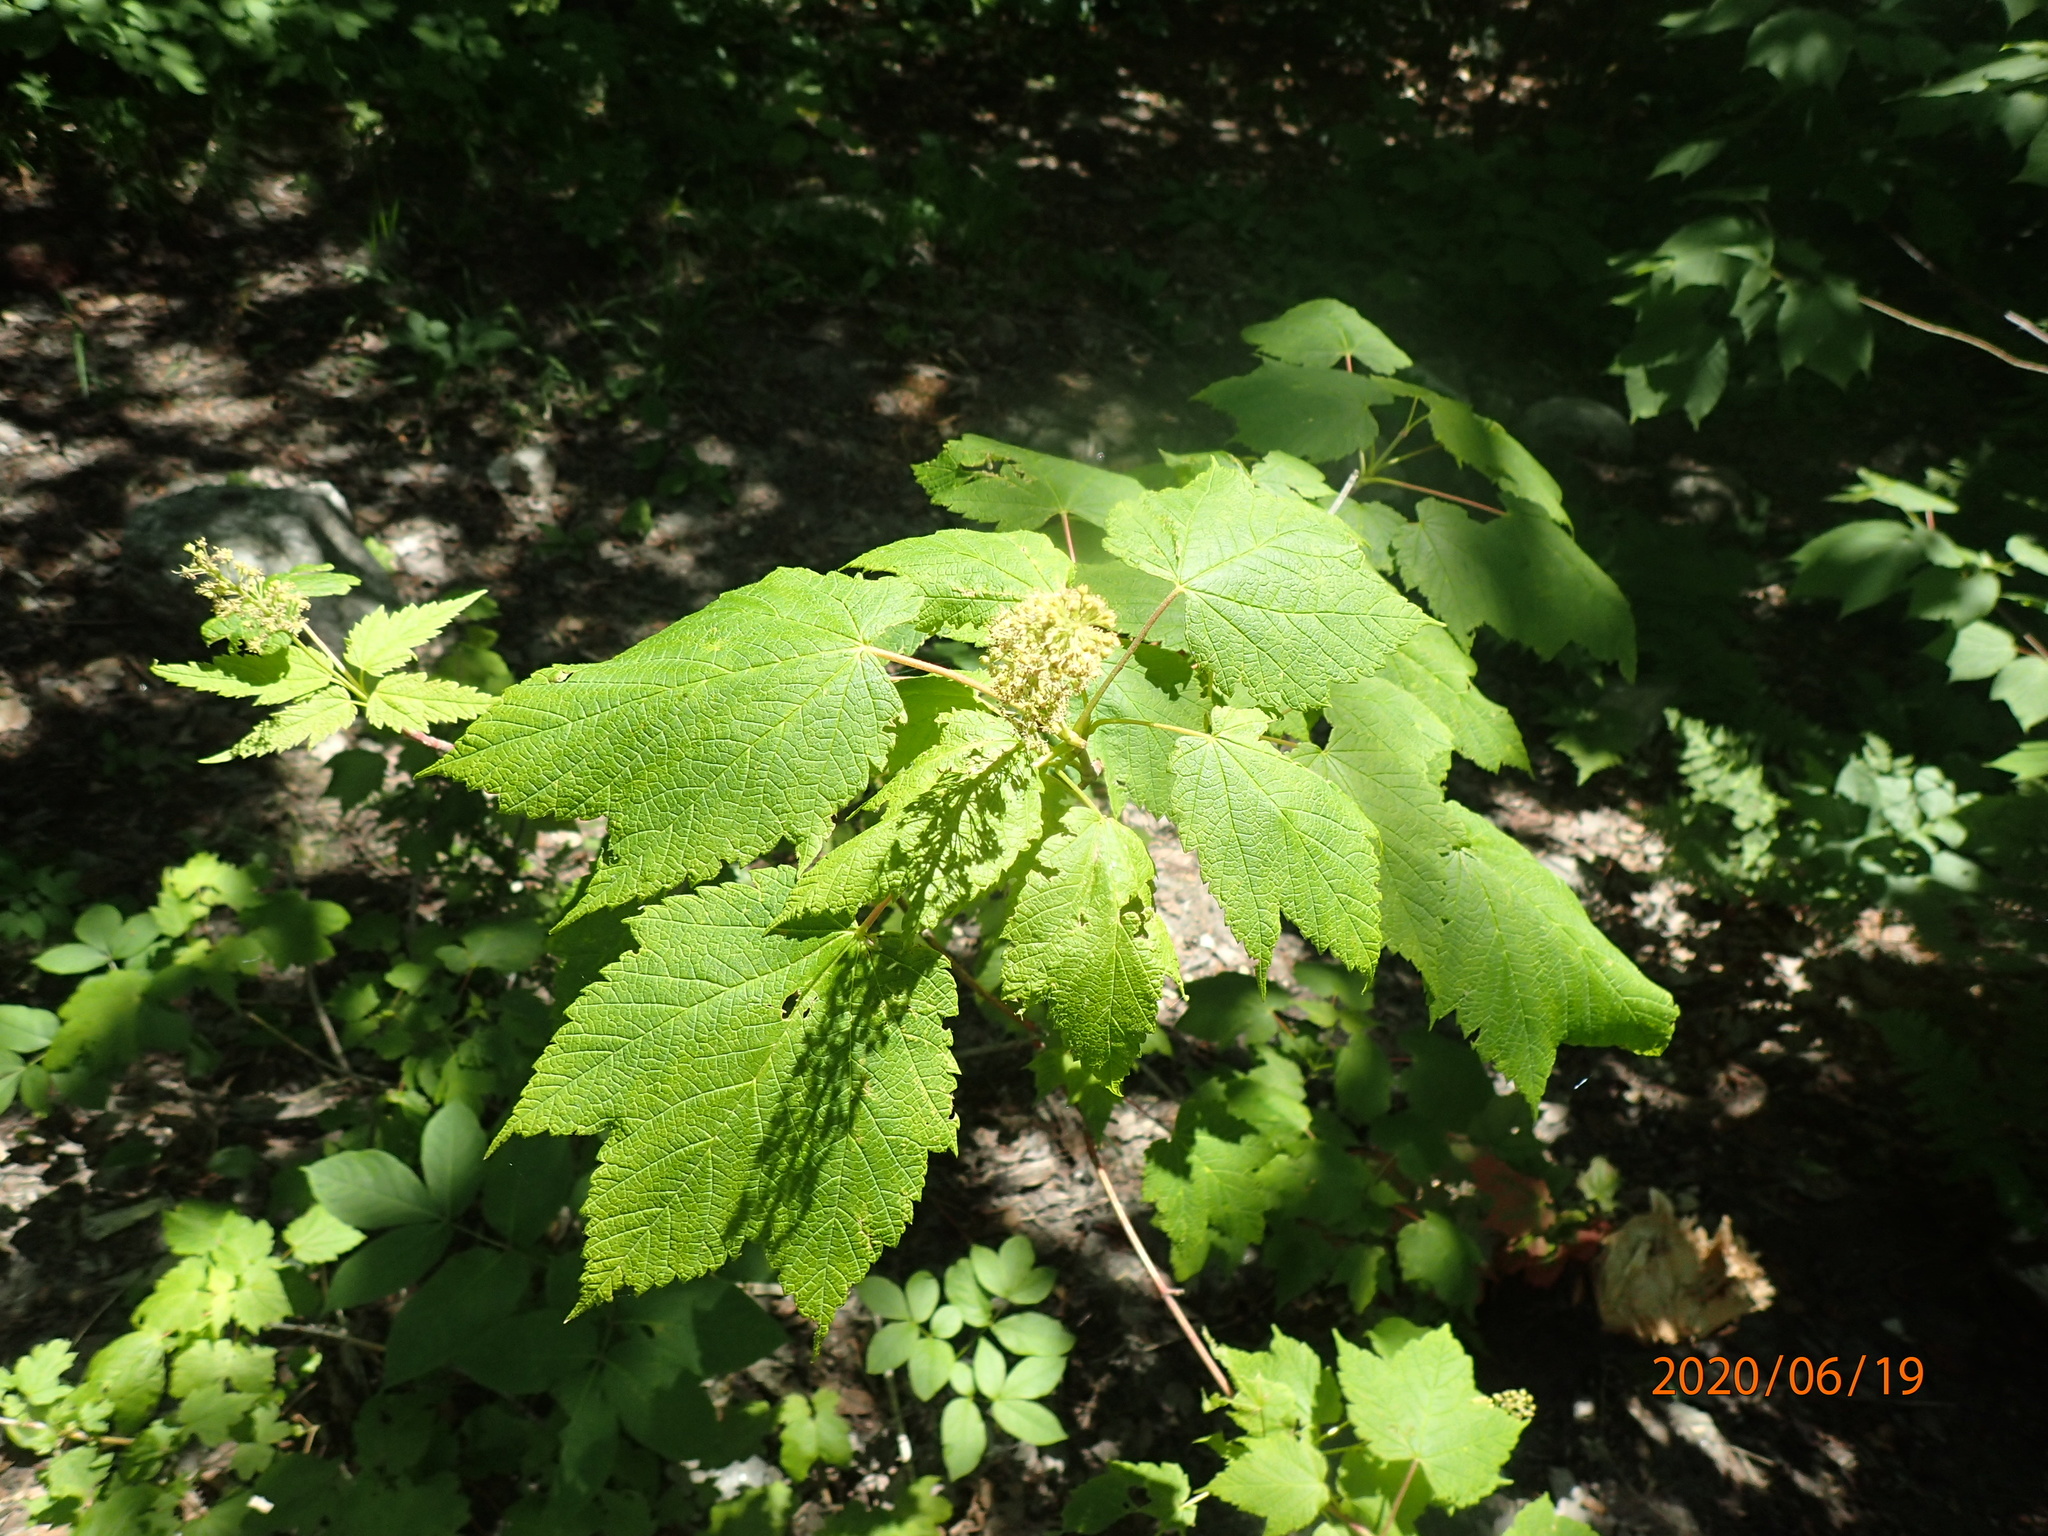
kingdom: Plantae
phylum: Tracheophyta
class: Magnoliopsida
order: Sapindales
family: Sapindaceae
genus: Acer
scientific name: Acer spicatum
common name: Mountain maple
